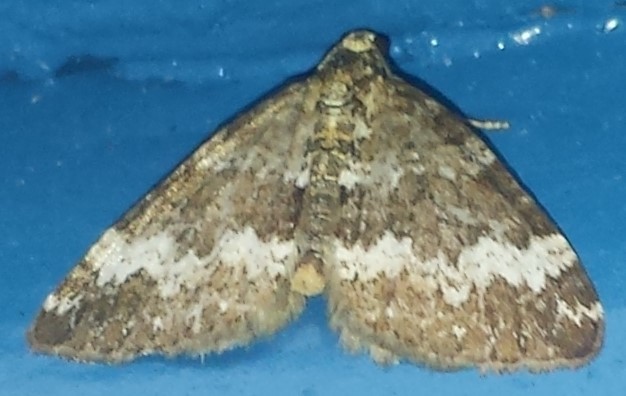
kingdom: Animalia
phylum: Arthropoda
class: Insecta
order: Lepidoptera
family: Geometridae
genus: Perizoma
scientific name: Perizoma alchemillata
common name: Small rivulet
